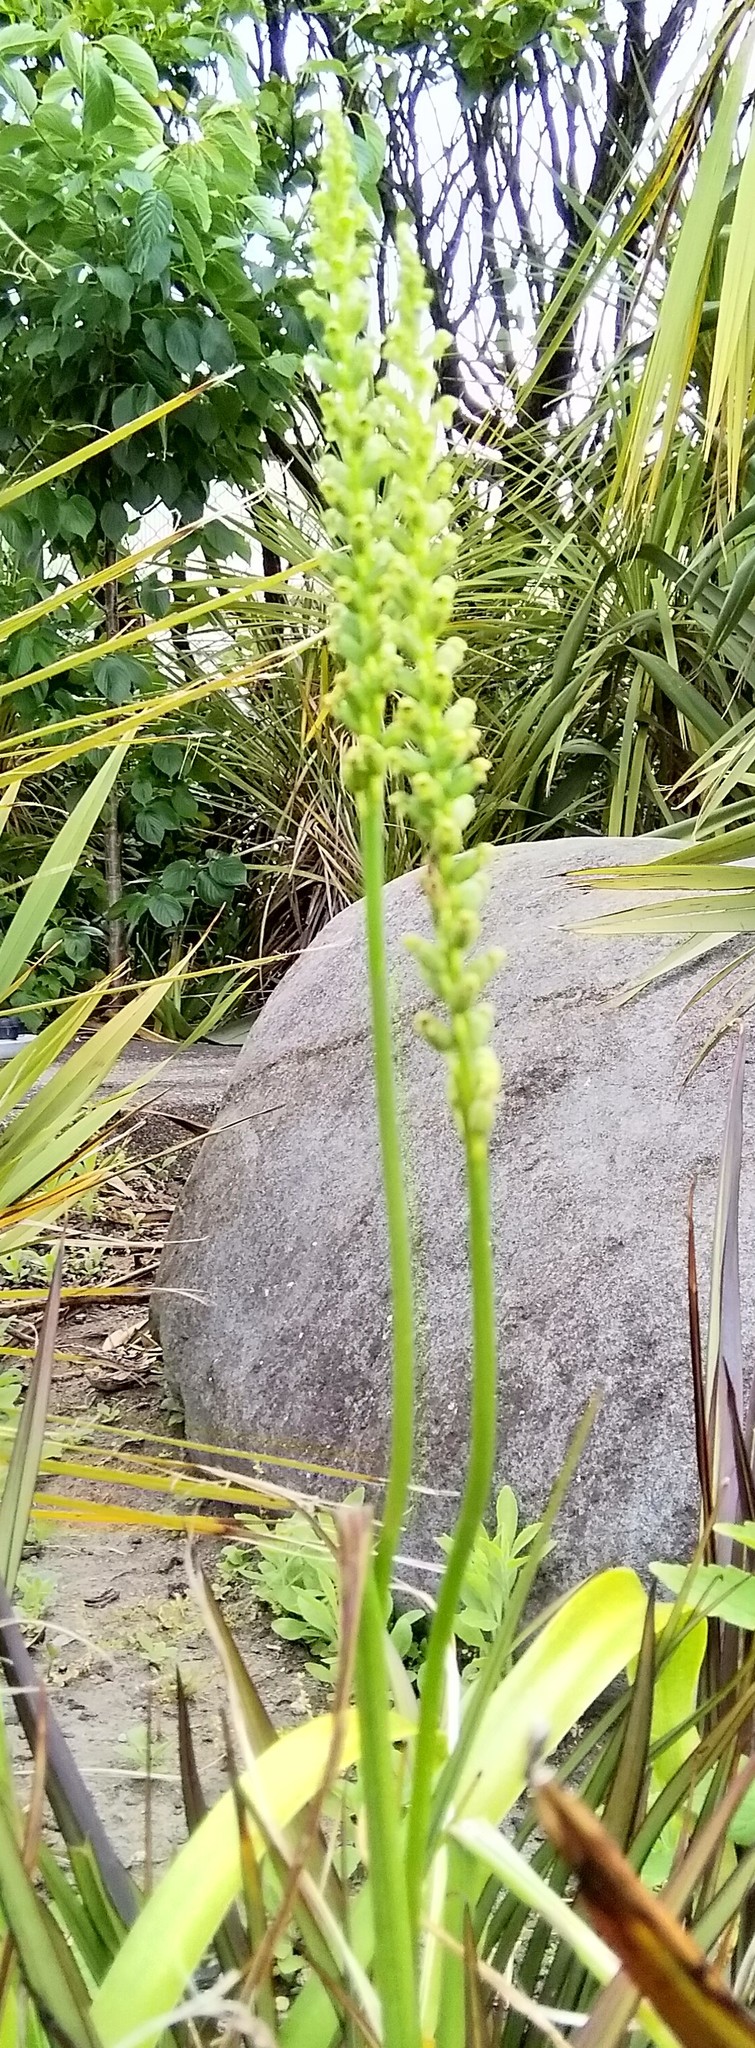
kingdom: Plantae
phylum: Tracheophyta
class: Liliopsida
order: Asparagales
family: Orchidaceae
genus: Microtis
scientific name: Microtis unifolia
